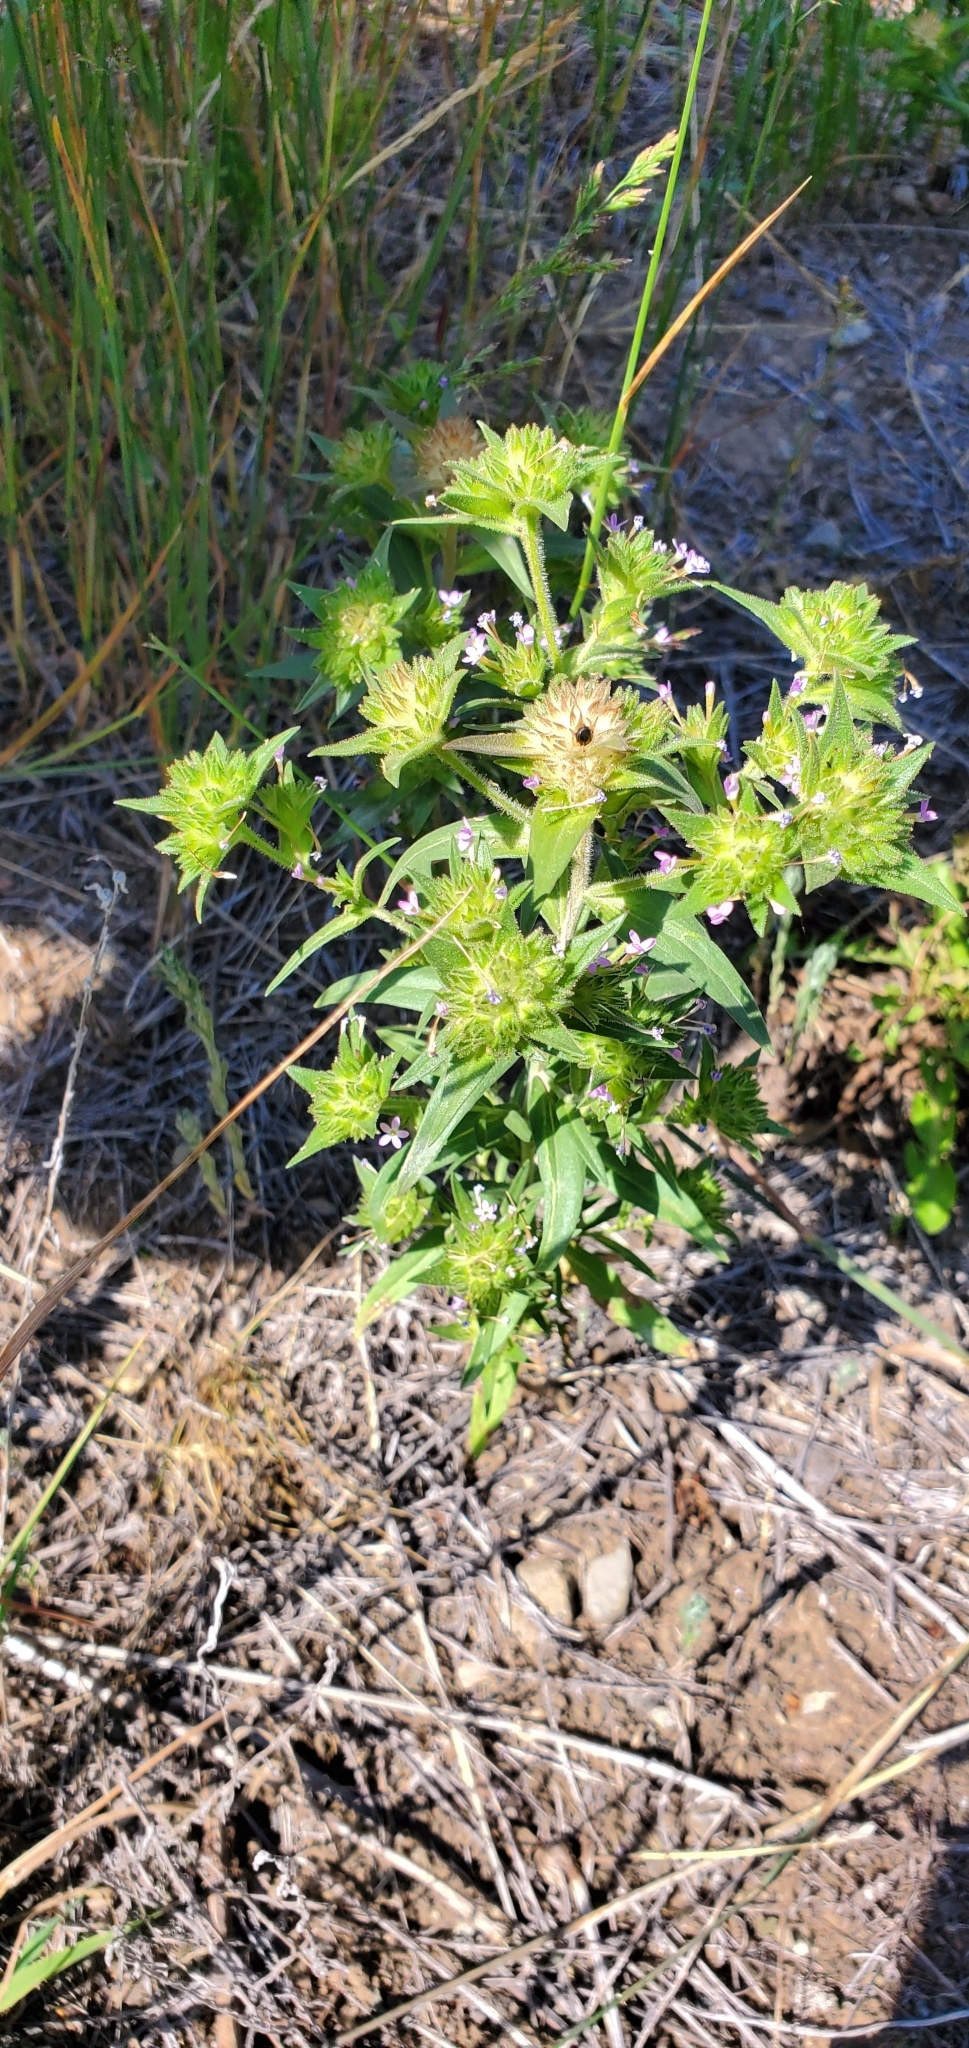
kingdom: Plantae
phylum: Tracheophyta
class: Magnoliopsida
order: Ericales
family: Polemoniaceae
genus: Collomia
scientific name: Collomia linearis
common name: Tiny trumpet
